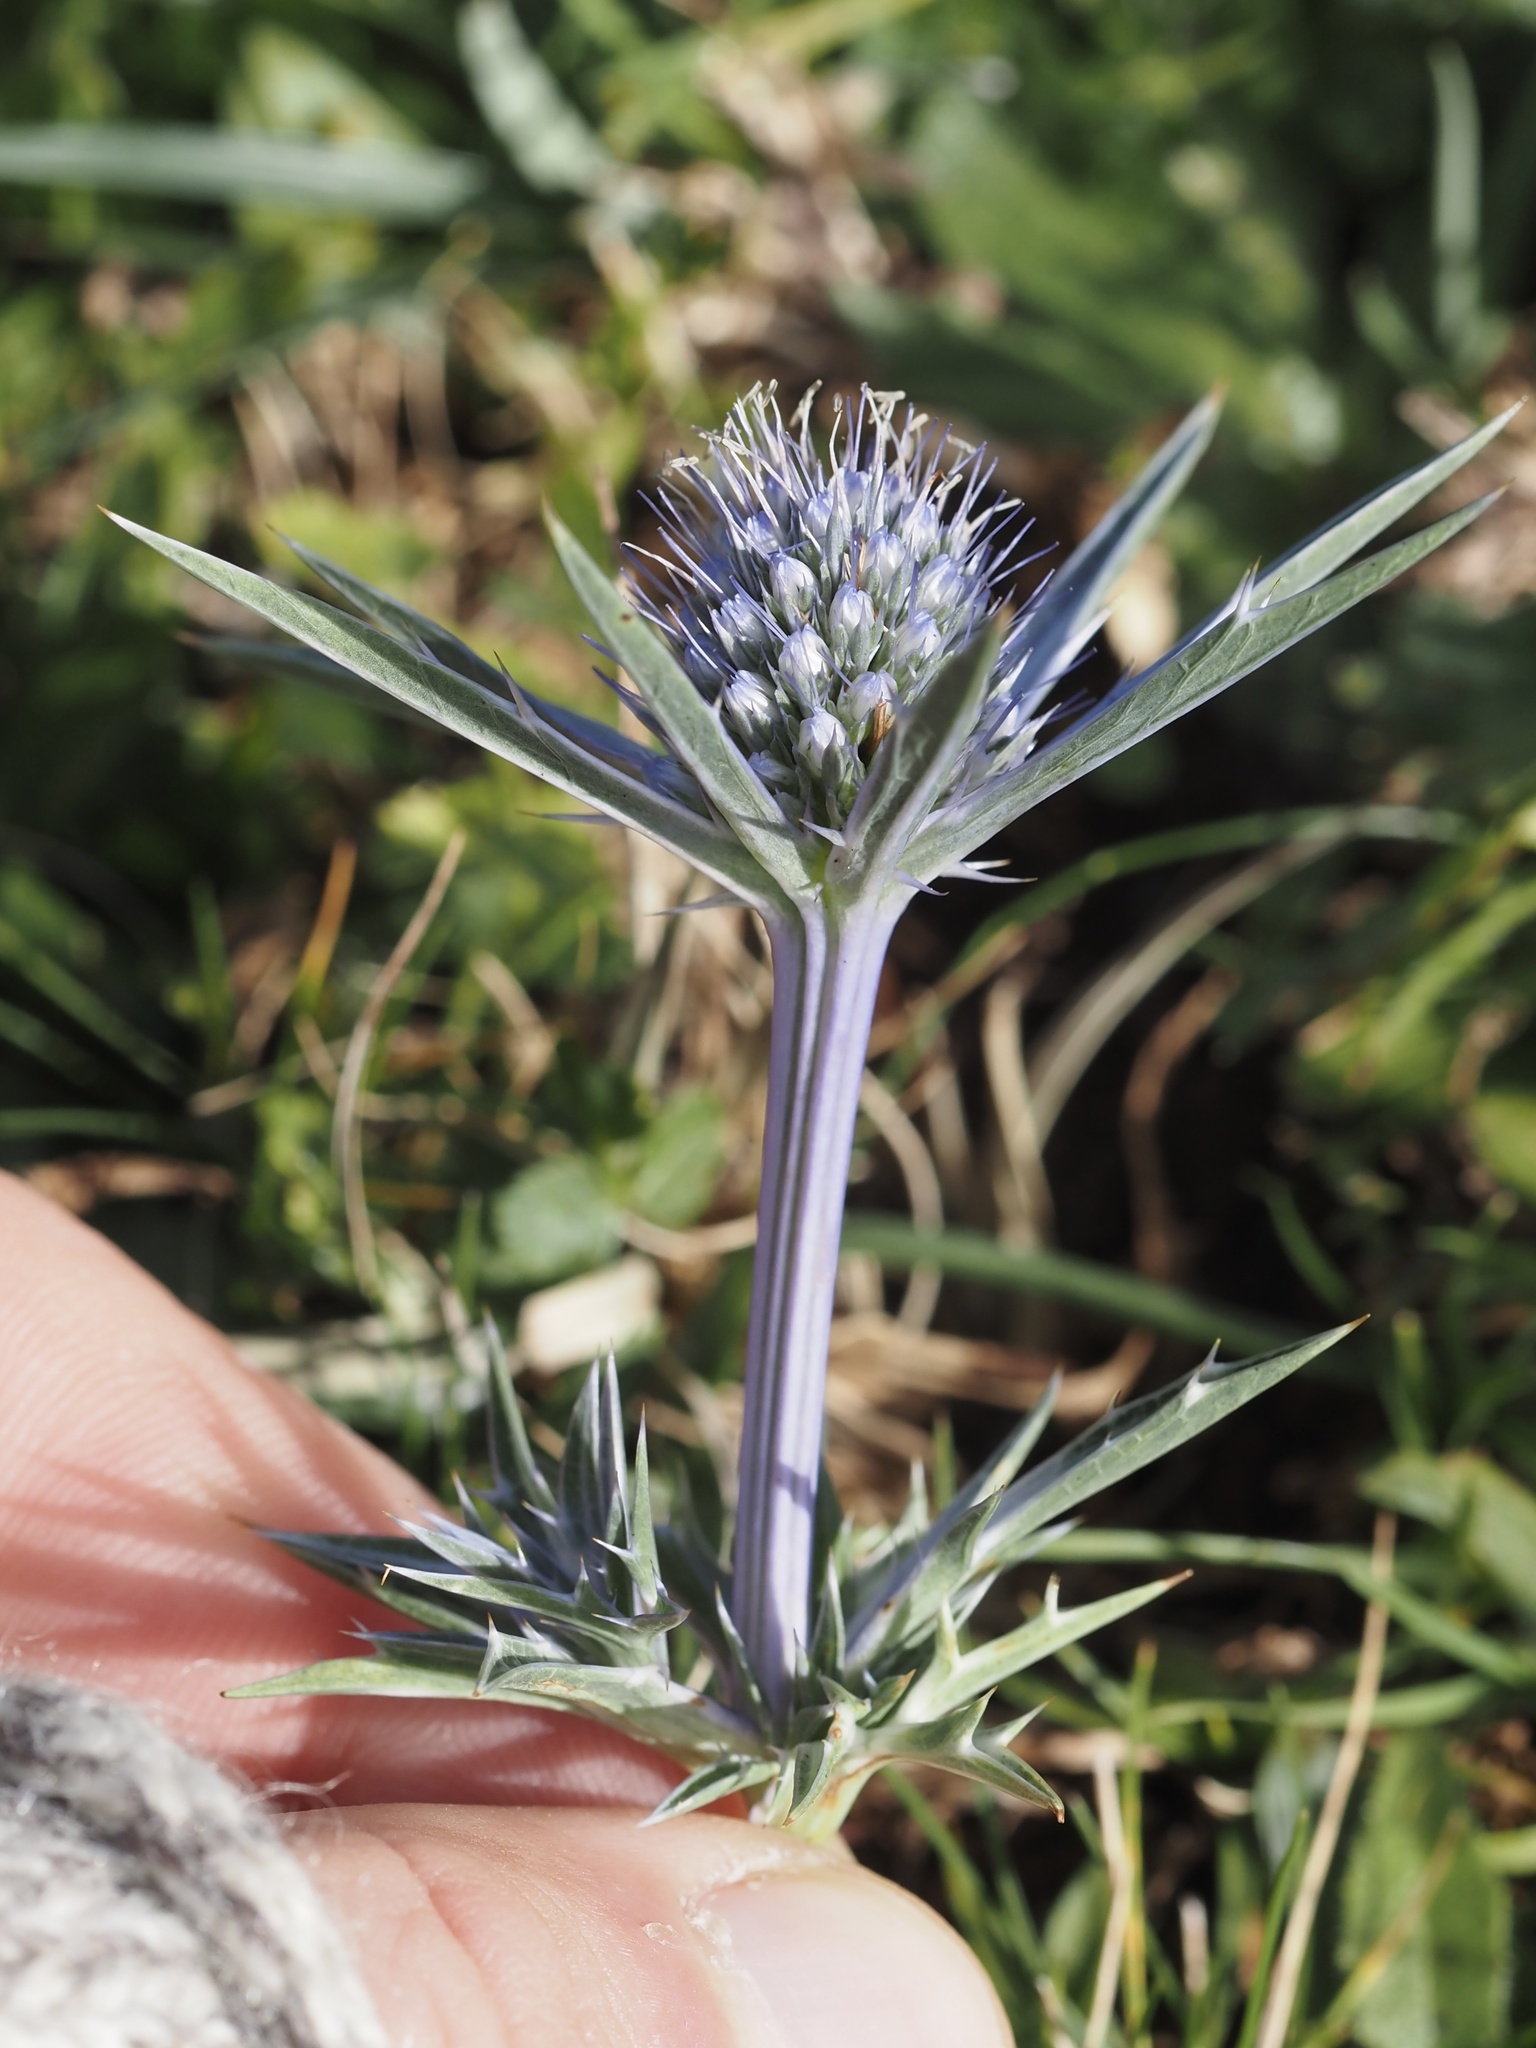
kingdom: Plantae
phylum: Tracheophyta
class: Magnoliopsida
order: Apiales
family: Apiaceae
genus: Eryngium
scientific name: Eryngium bourgatii
